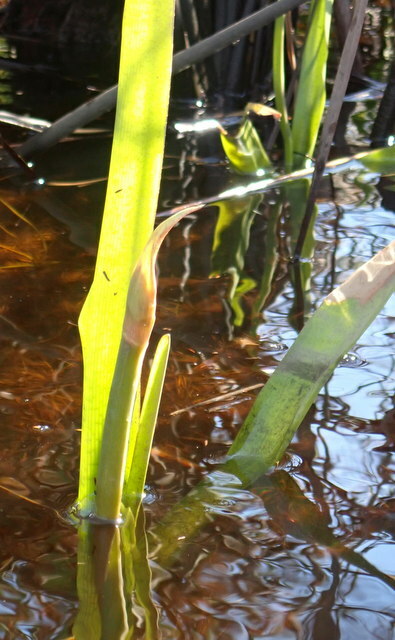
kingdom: Plantae
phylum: Tracheophyta
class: Liliopsida
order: Asparagales
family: Amaryllidaceae
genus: Crinum
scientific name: Crinum americanum
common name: Florida swamp-lily
